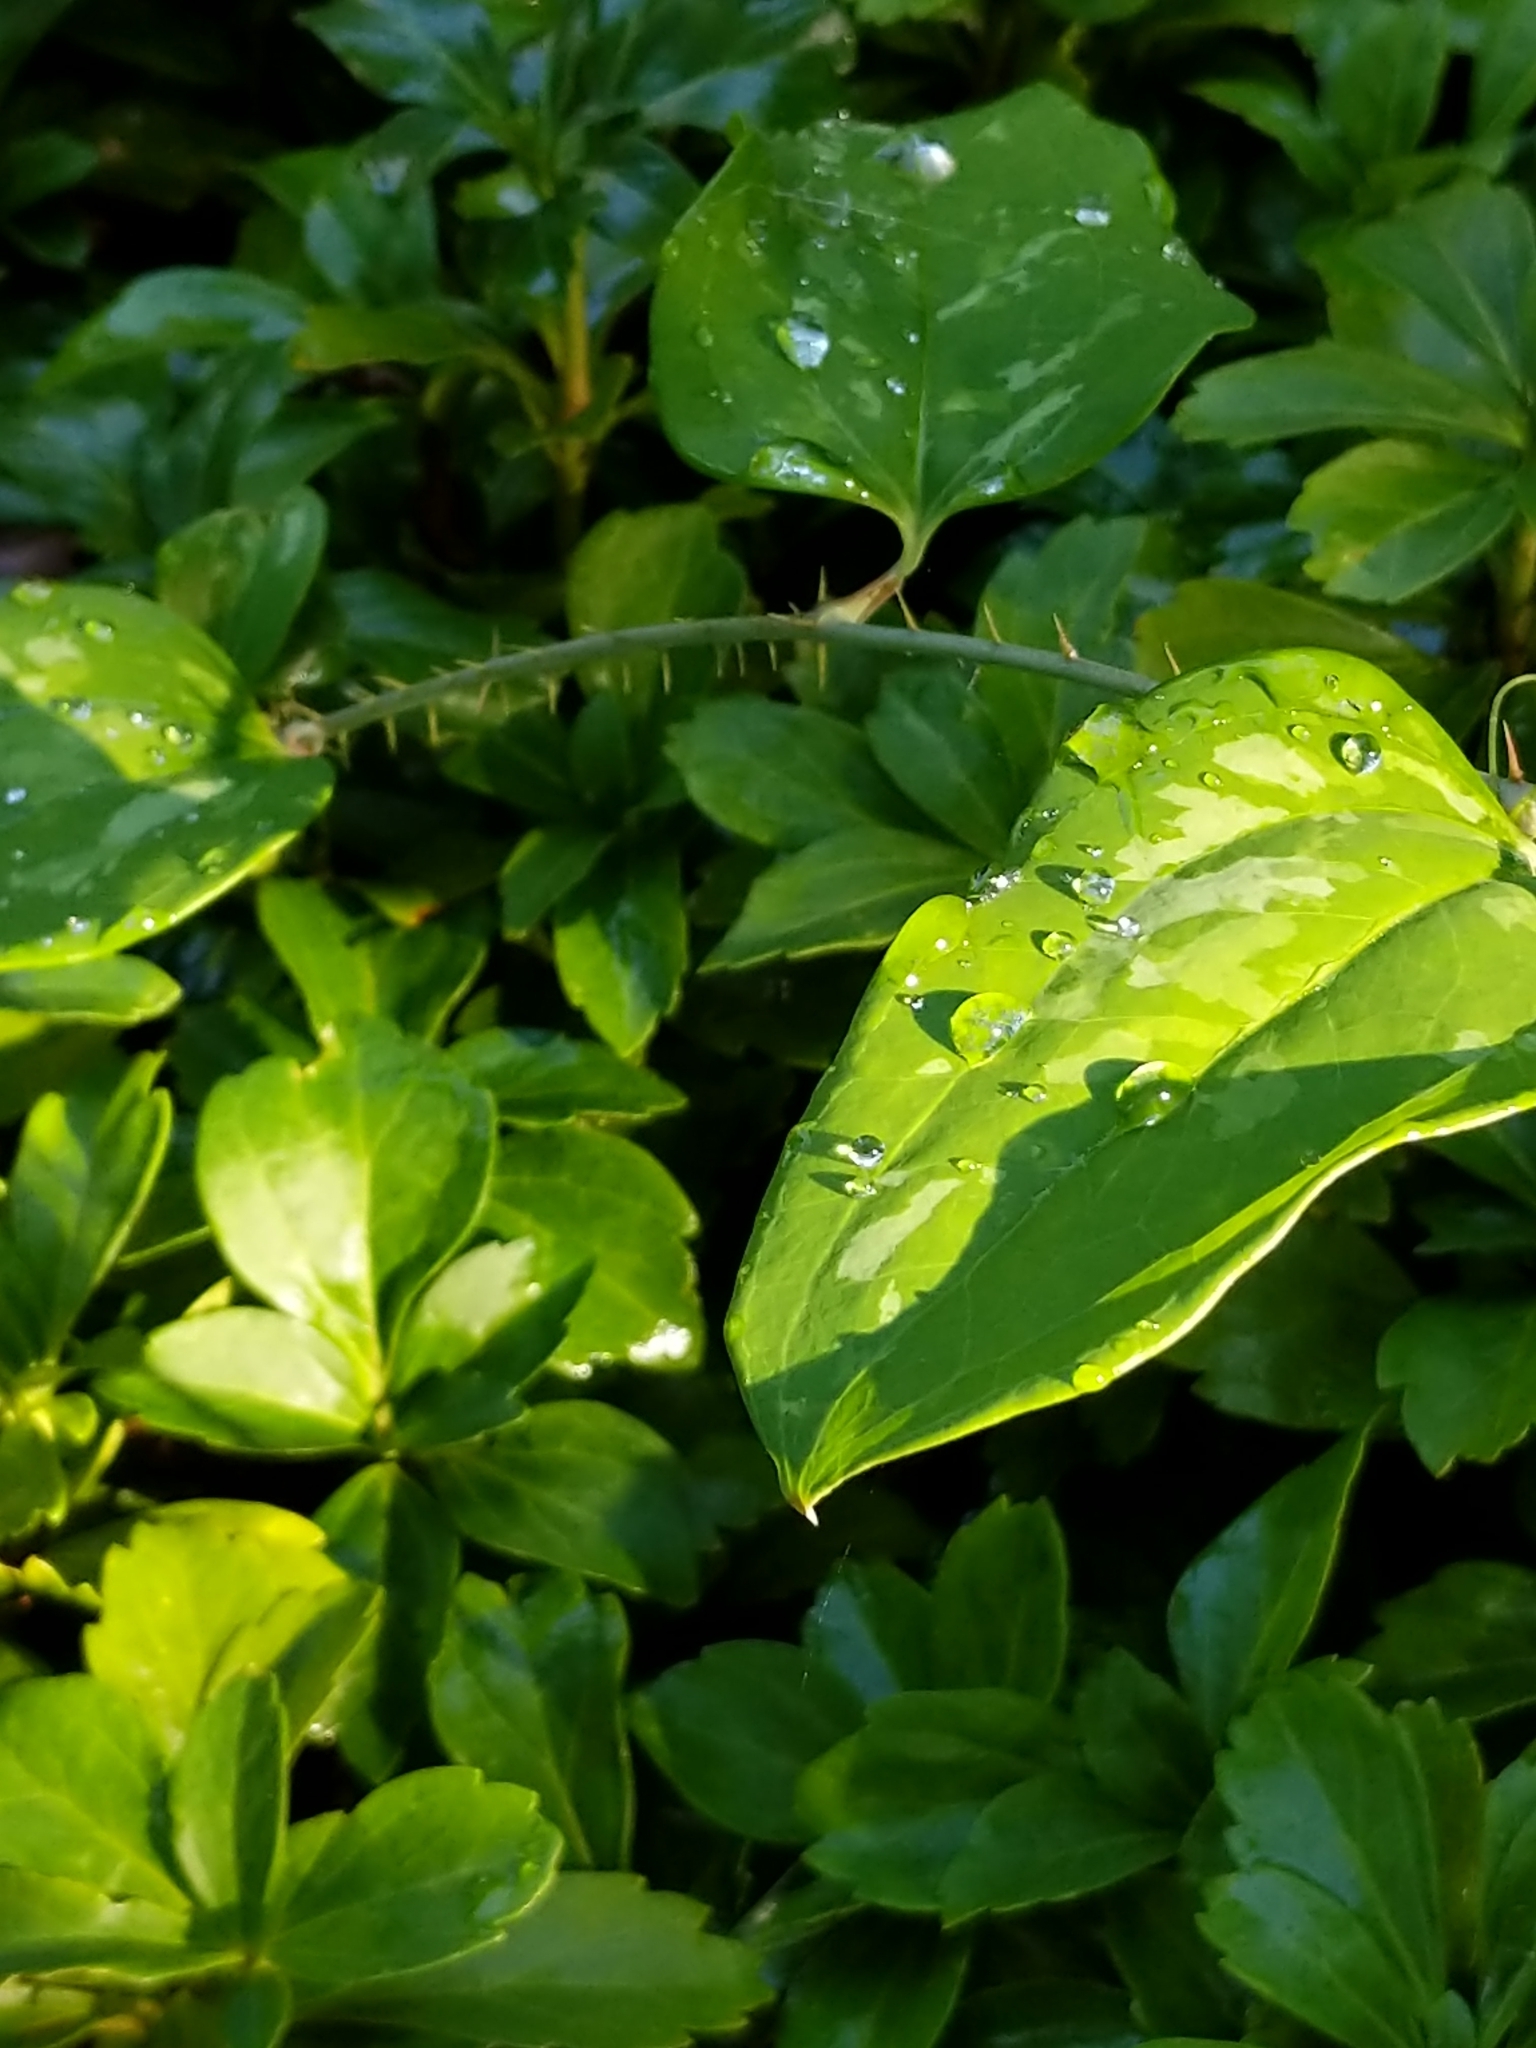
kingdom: Plantae
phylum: Tracheophyta
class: Liliopsida
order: Liliales
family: Smilacaceae
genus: Smilax
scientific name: Smilax glauca
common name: Cat greenbrier
